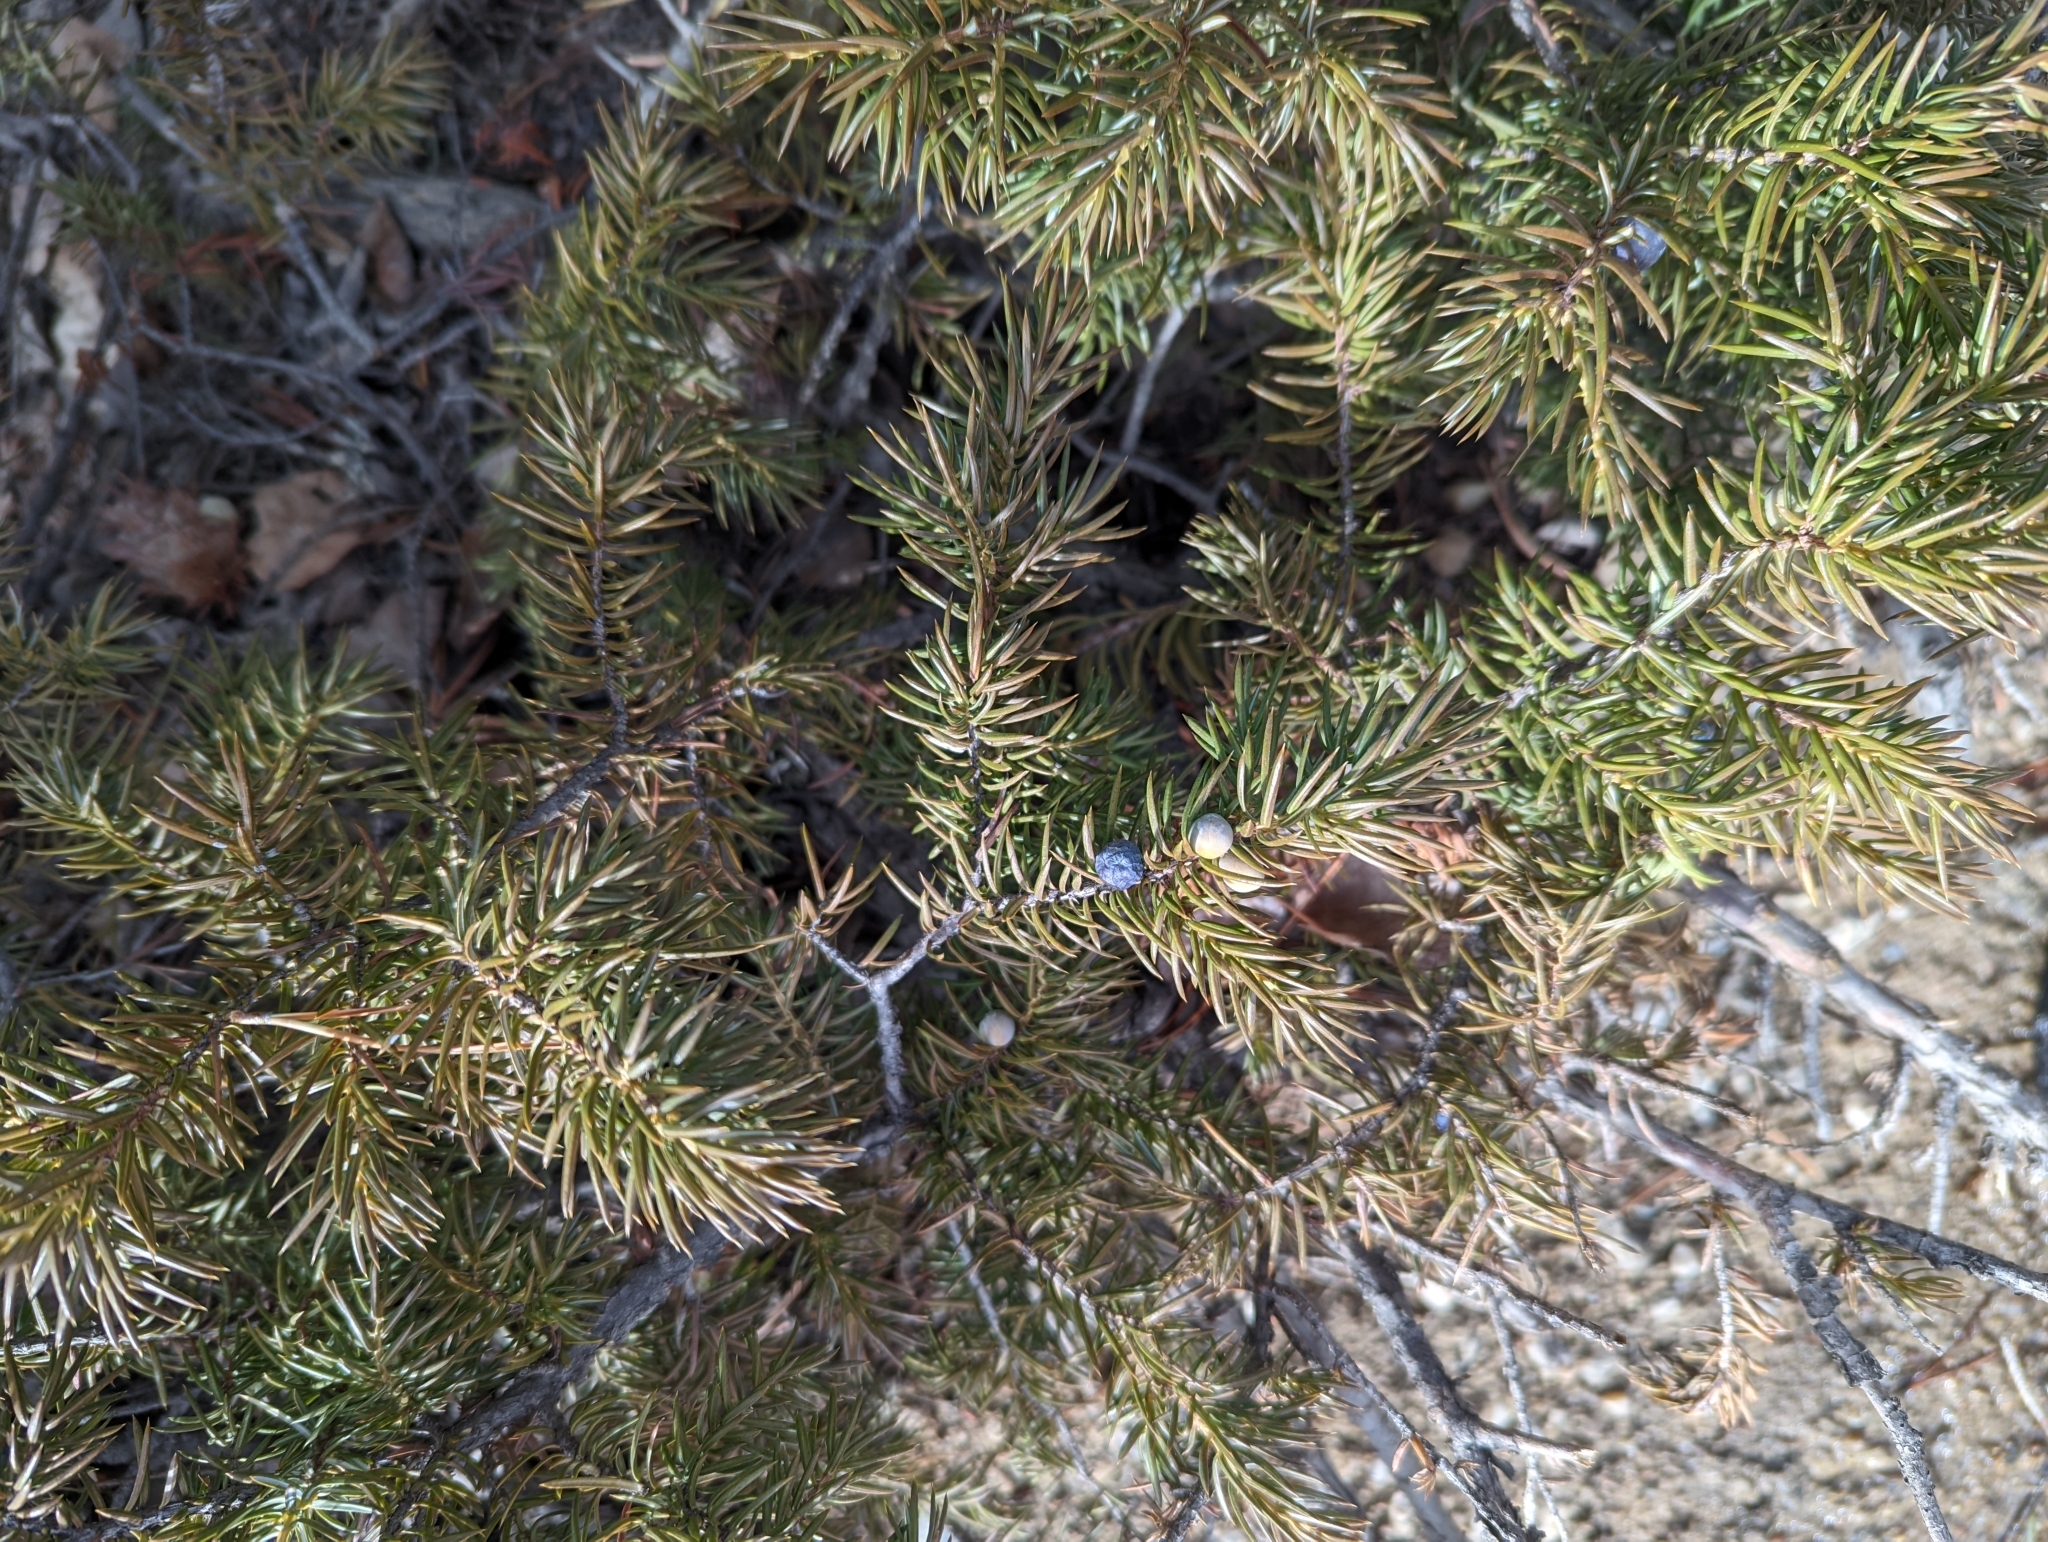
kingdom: Plantae
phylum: Tracheophyta
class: Pinopsida
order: Pinales
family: Cupressaceae
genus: Juniperus
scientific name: Juniperus communis
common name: Common juniper
